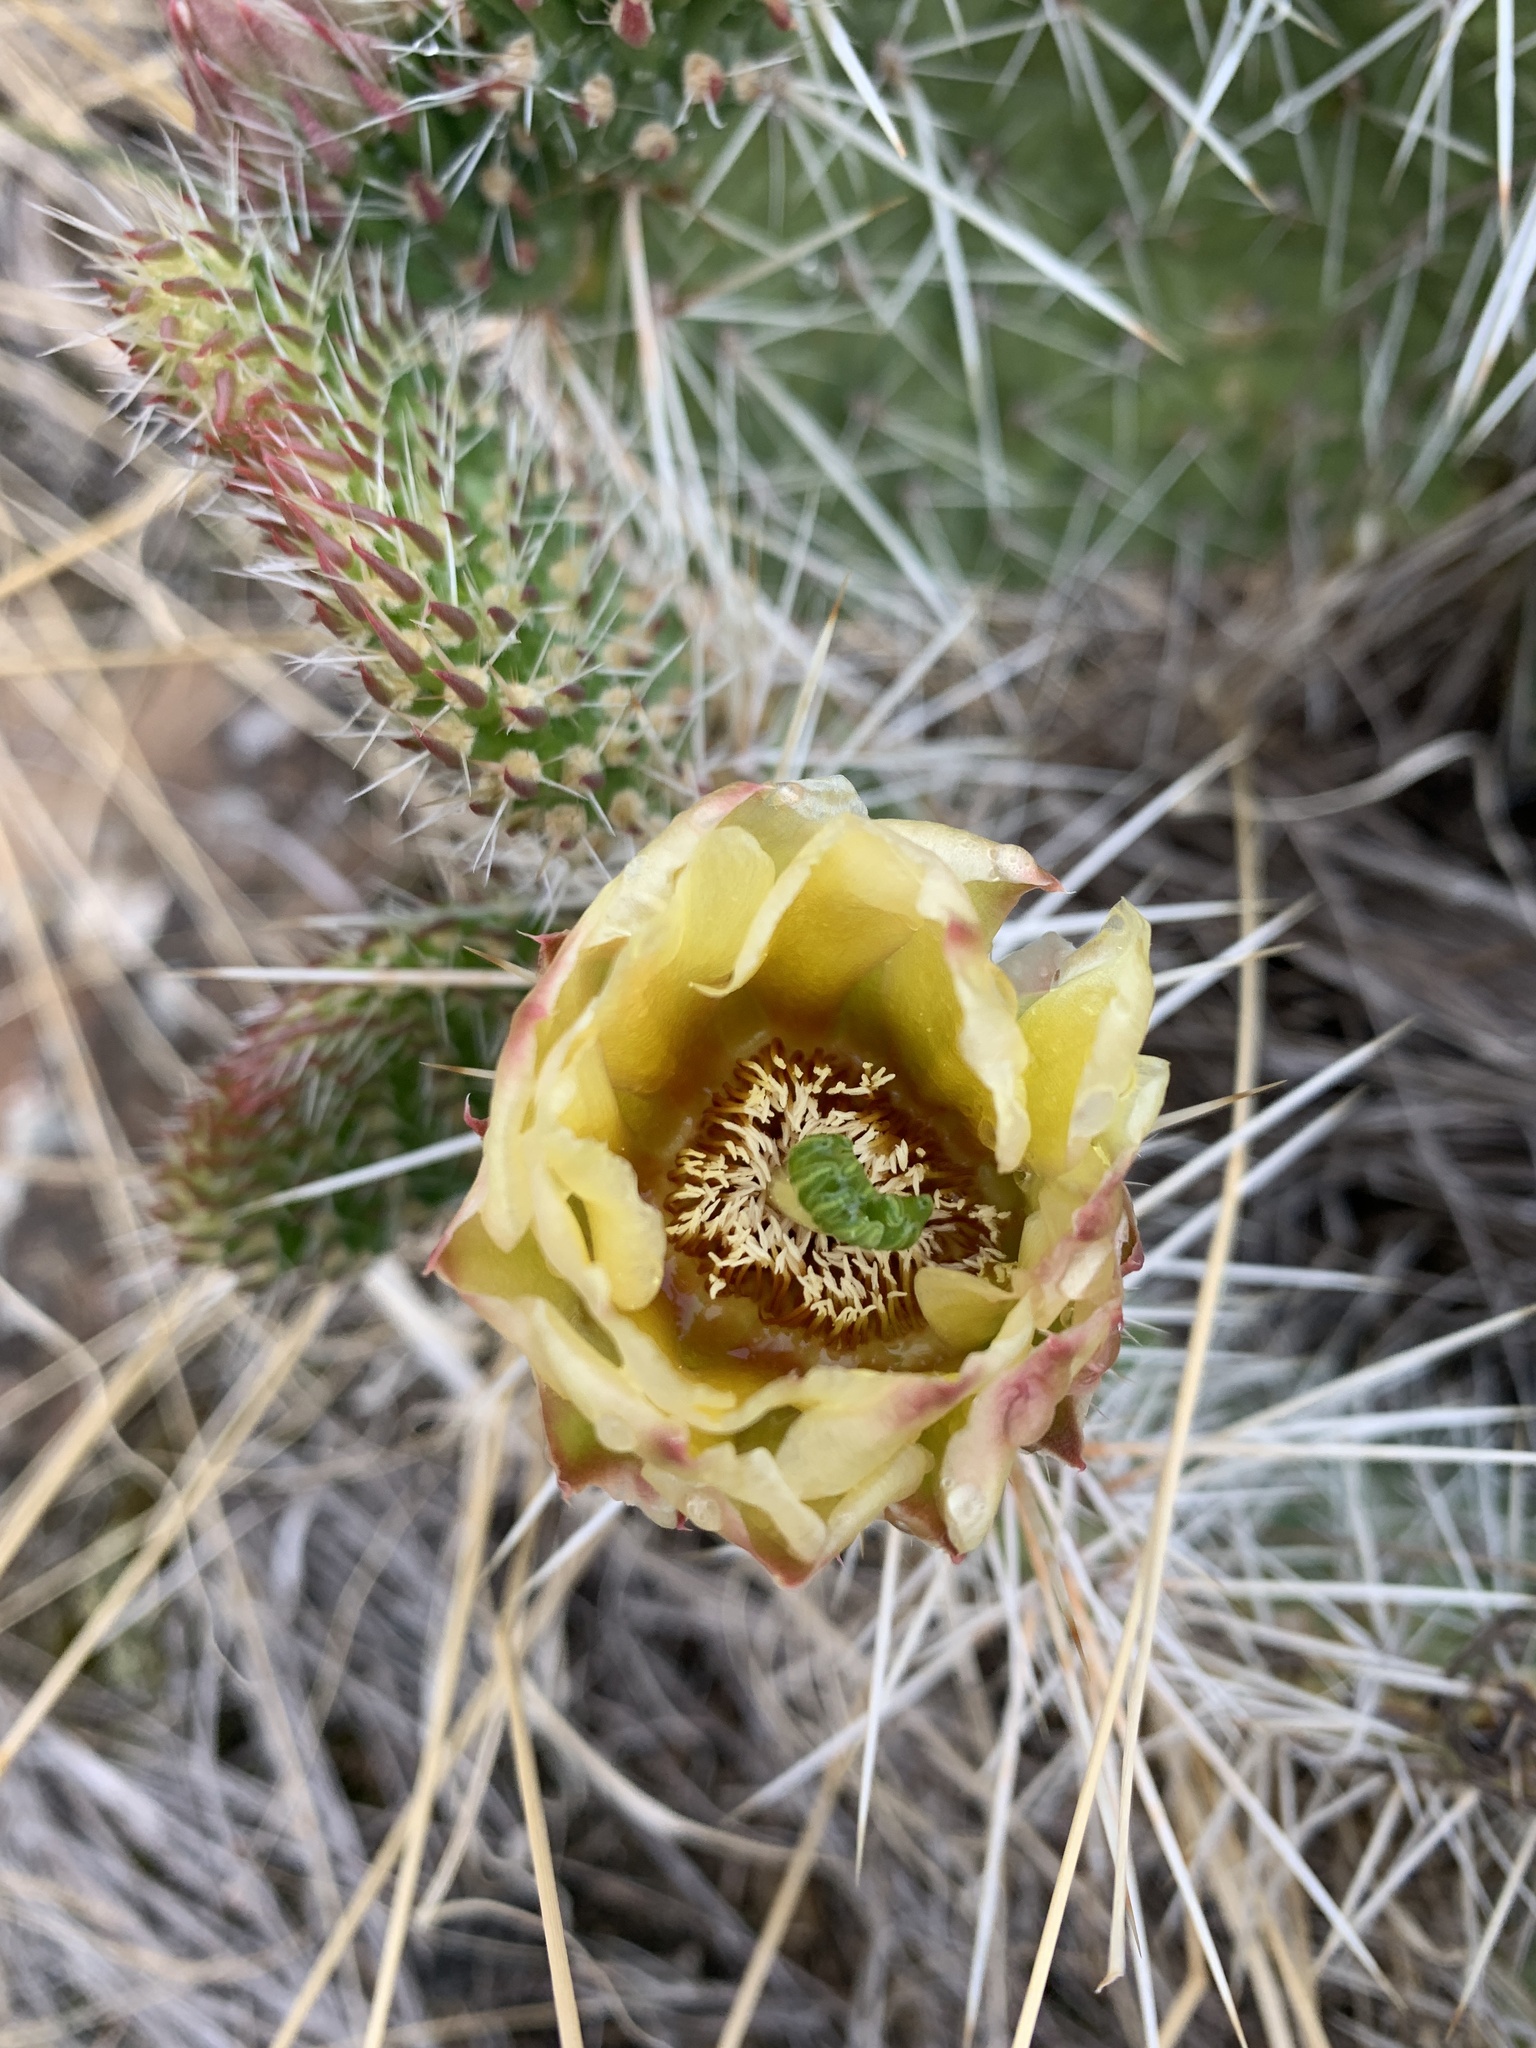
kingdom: Plantae
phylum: Tracheophyta
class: Magnoliopsida
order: Caryophyllales
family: Cactaceae
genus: Opuntia
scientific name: Opuntia polyacantha
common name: Plains prickly-pear
